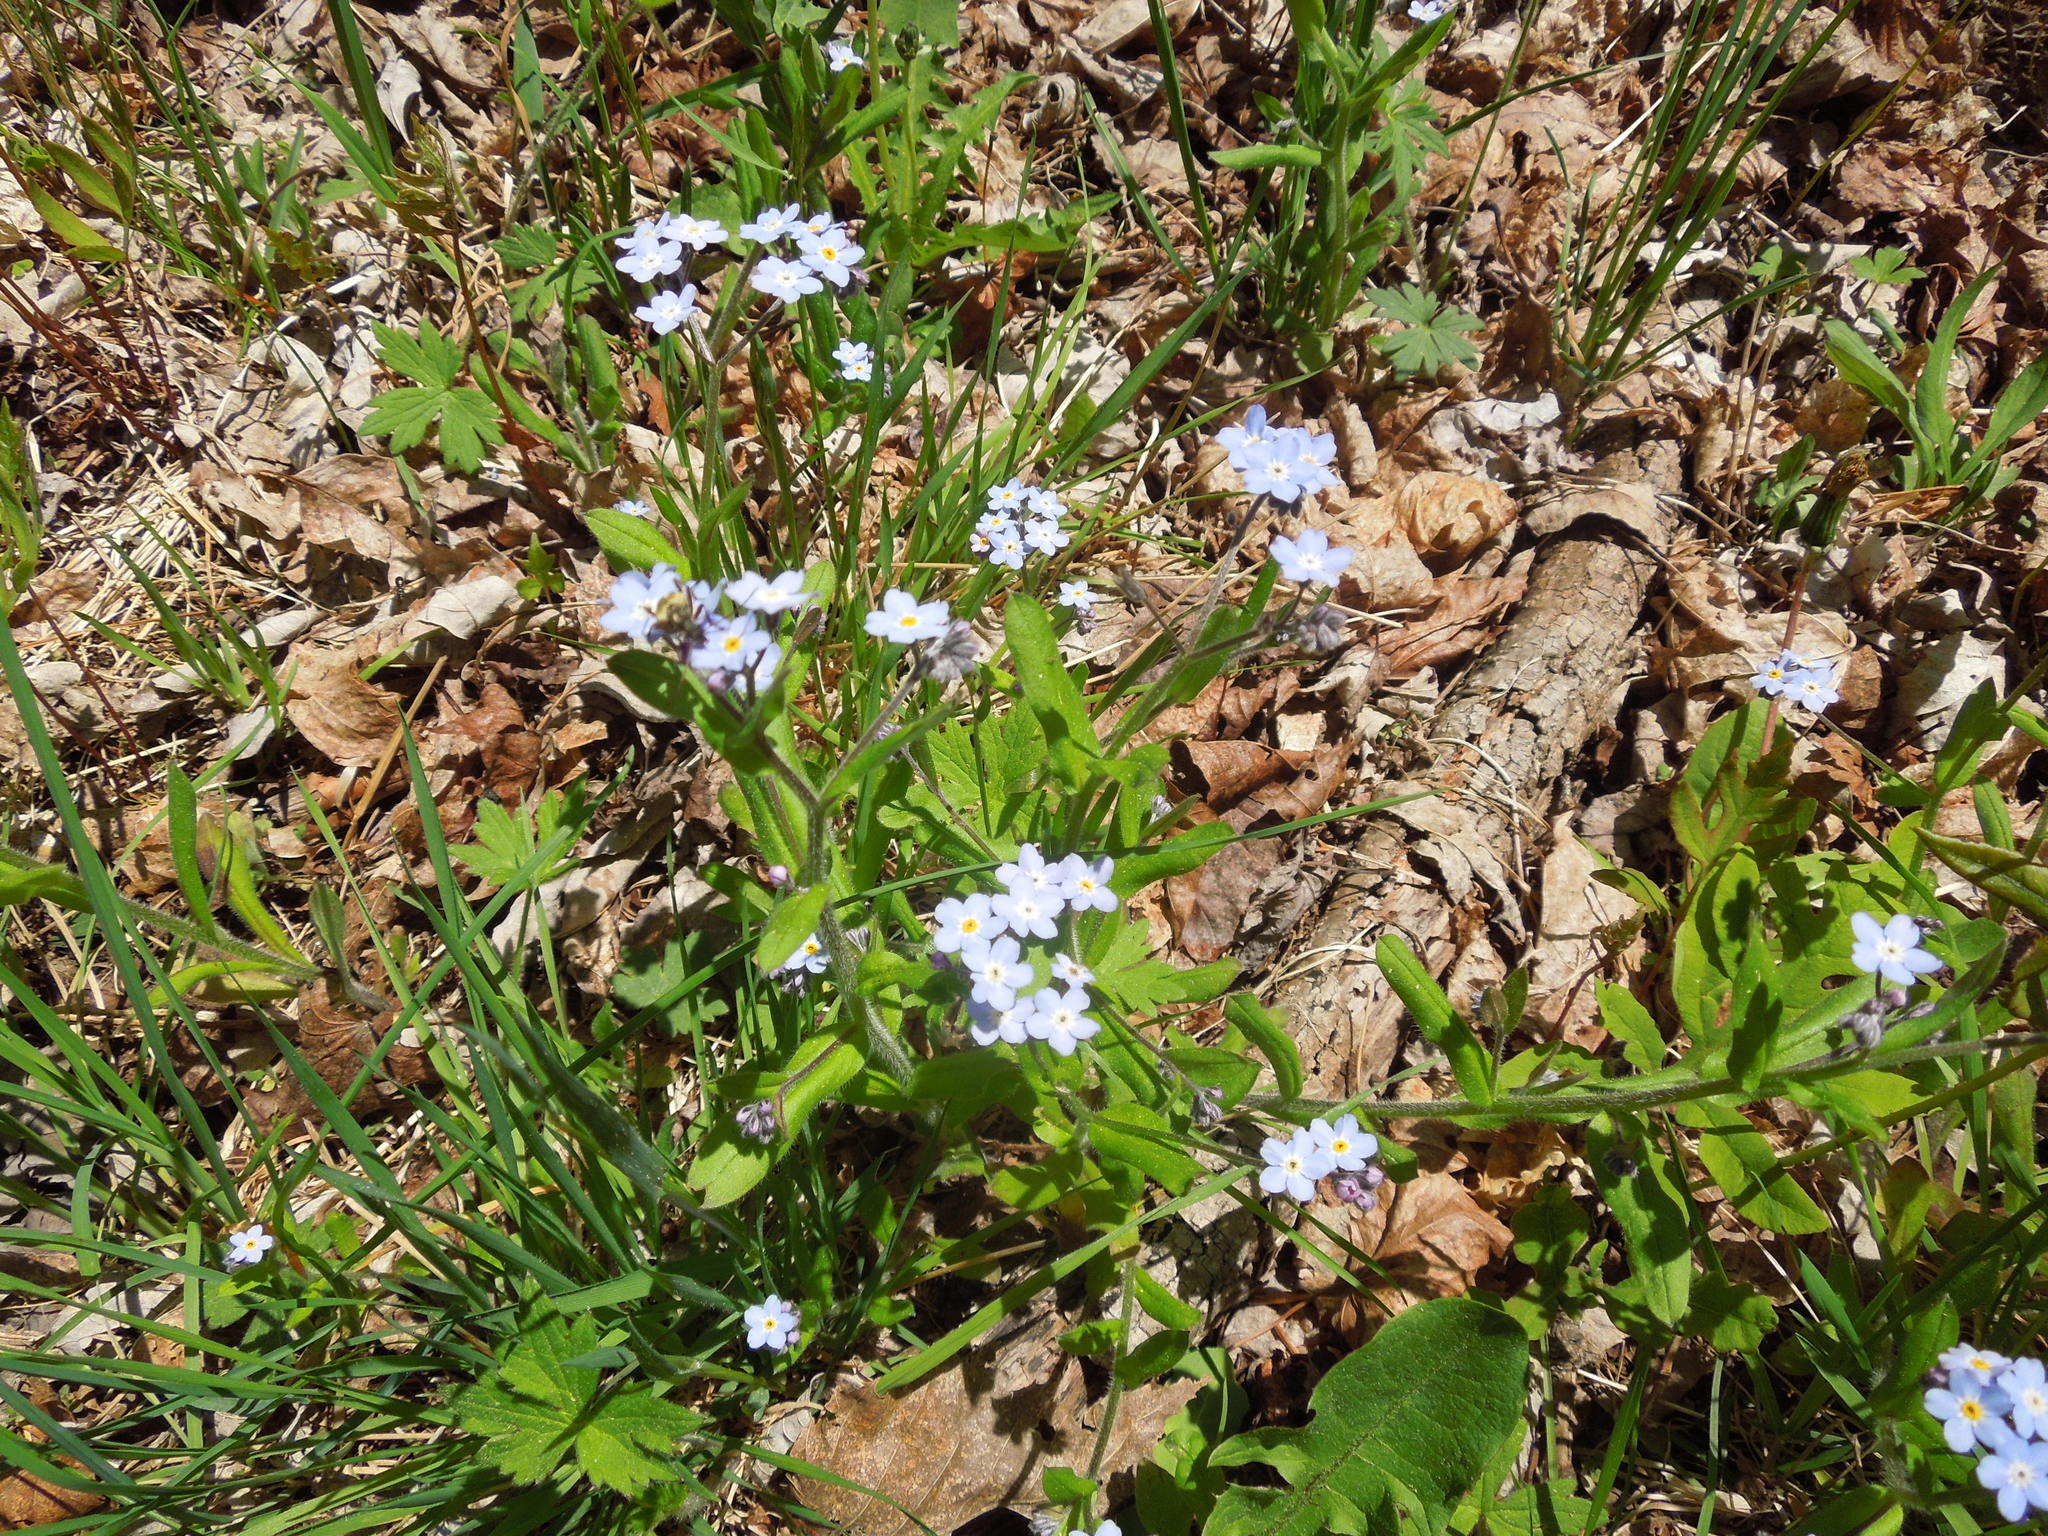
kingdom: Plantae
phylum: Tracheophyta
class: Magnoliopsida
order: Boraginales
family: Boraginaceae
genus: Myosotis
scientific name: Myosotis
